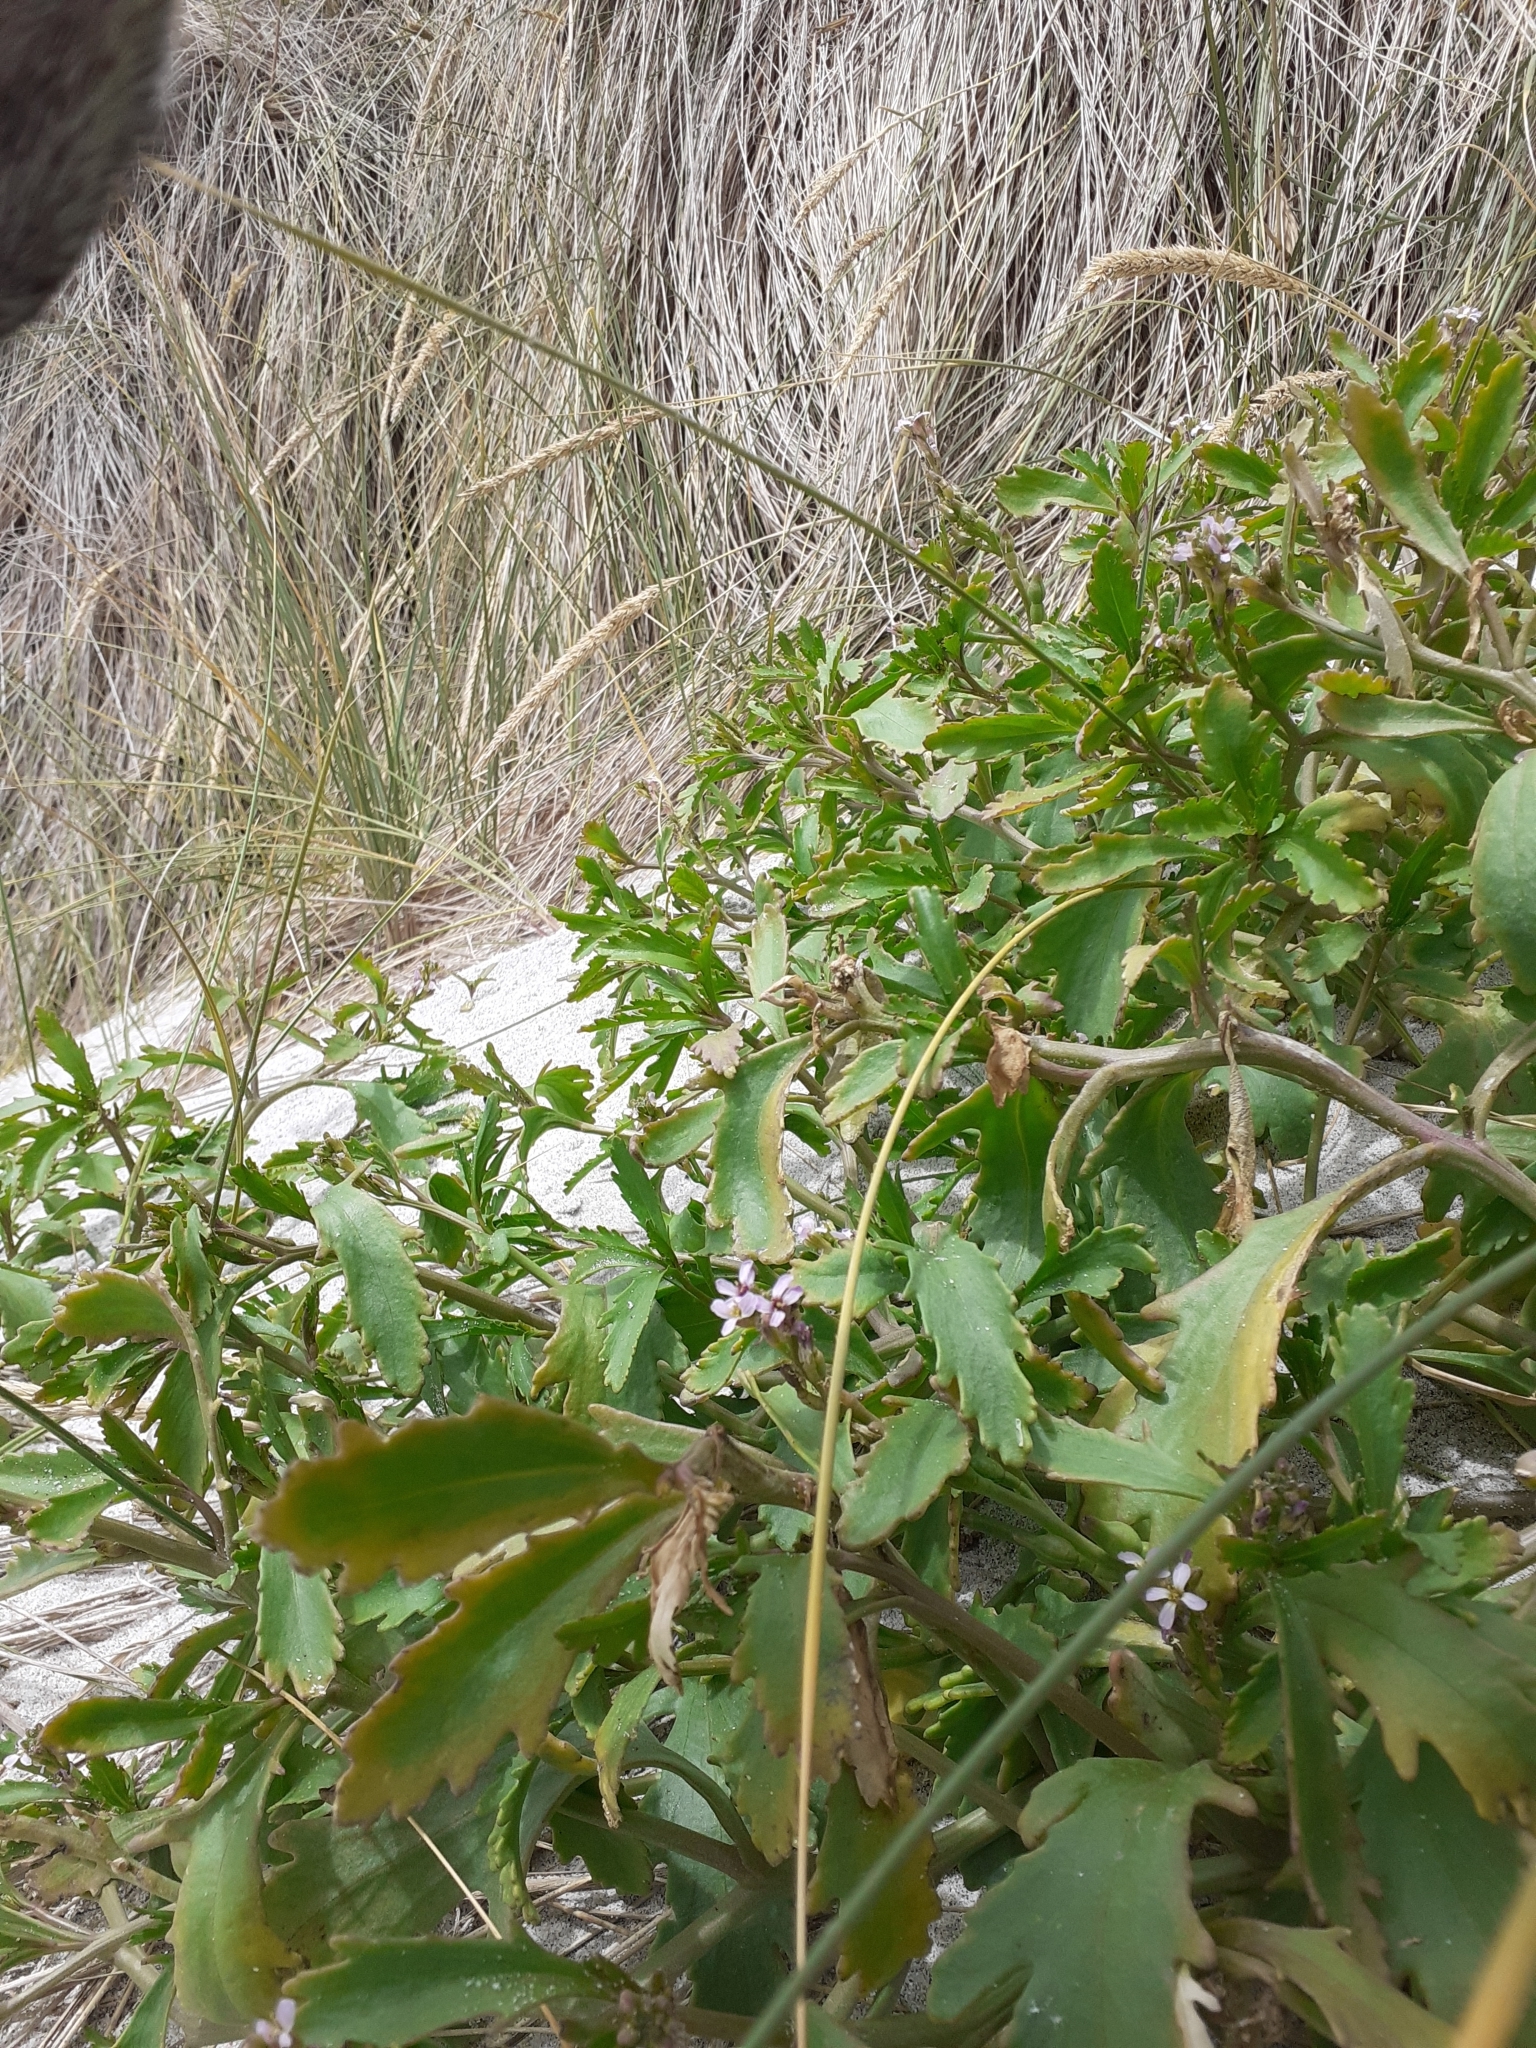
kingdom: Plantae
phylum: Tracheophyta
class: Magnoliopsida
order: Brassicales
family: Brassicaceae
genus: Cakile
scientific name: Cakile edentula
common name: American sea rocket
